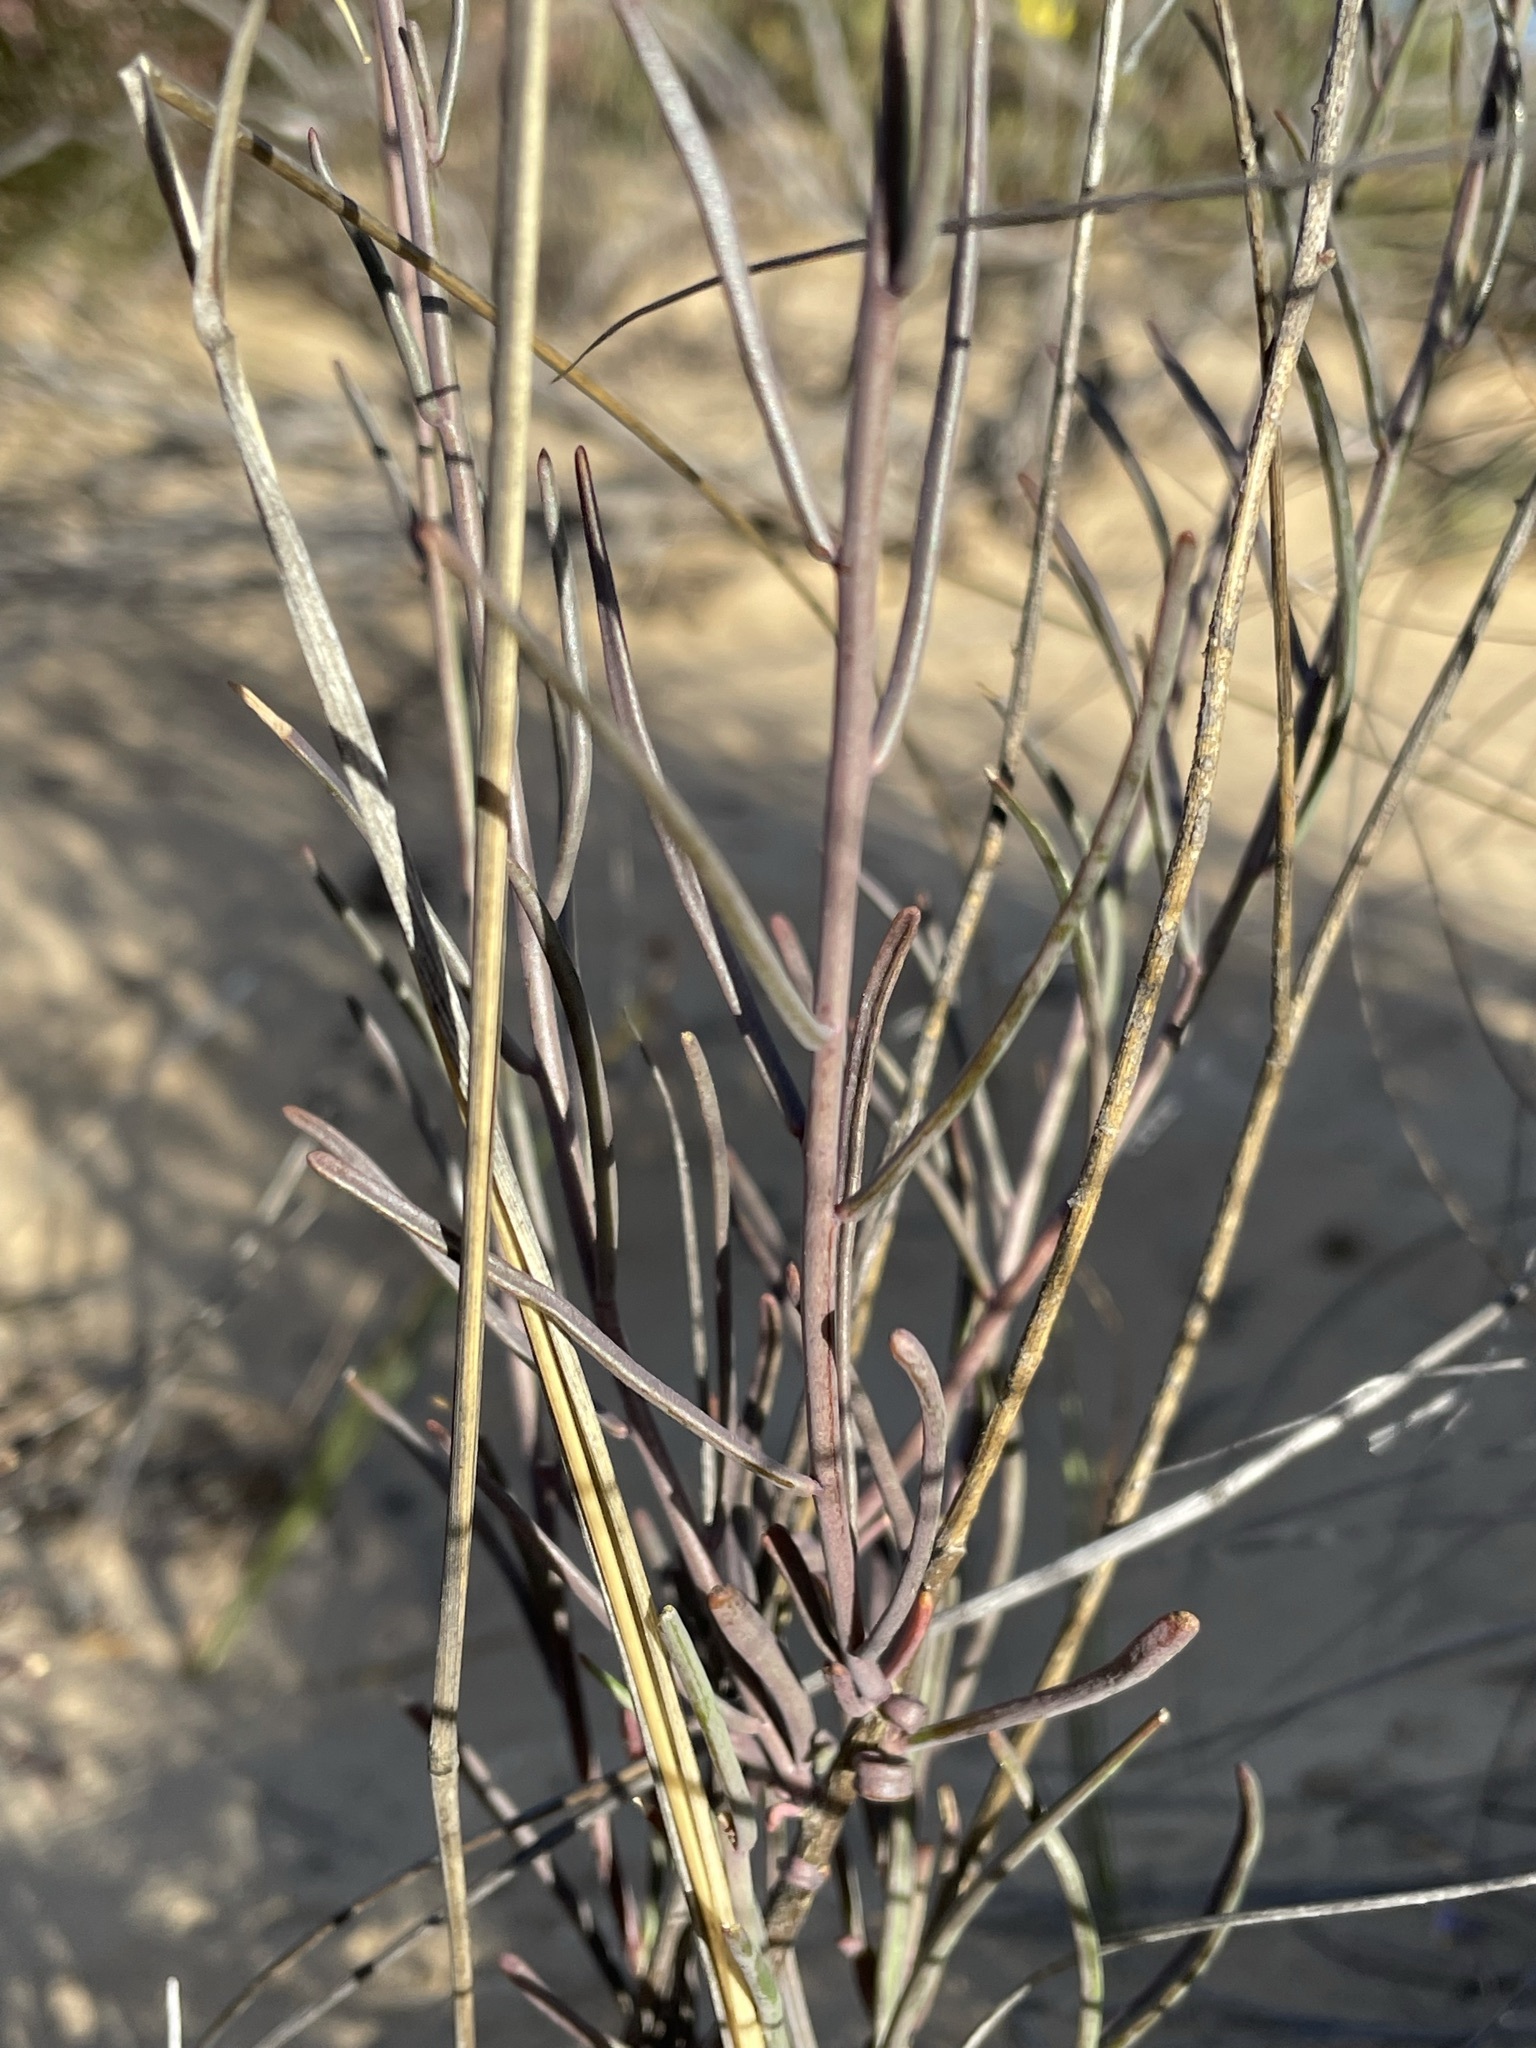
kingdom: Plantae
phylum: Tracheophyta
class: Magnoliopsida
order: Brassicales
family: Brassicaceae
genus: Heliophila
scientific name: Heliophila cornuta
